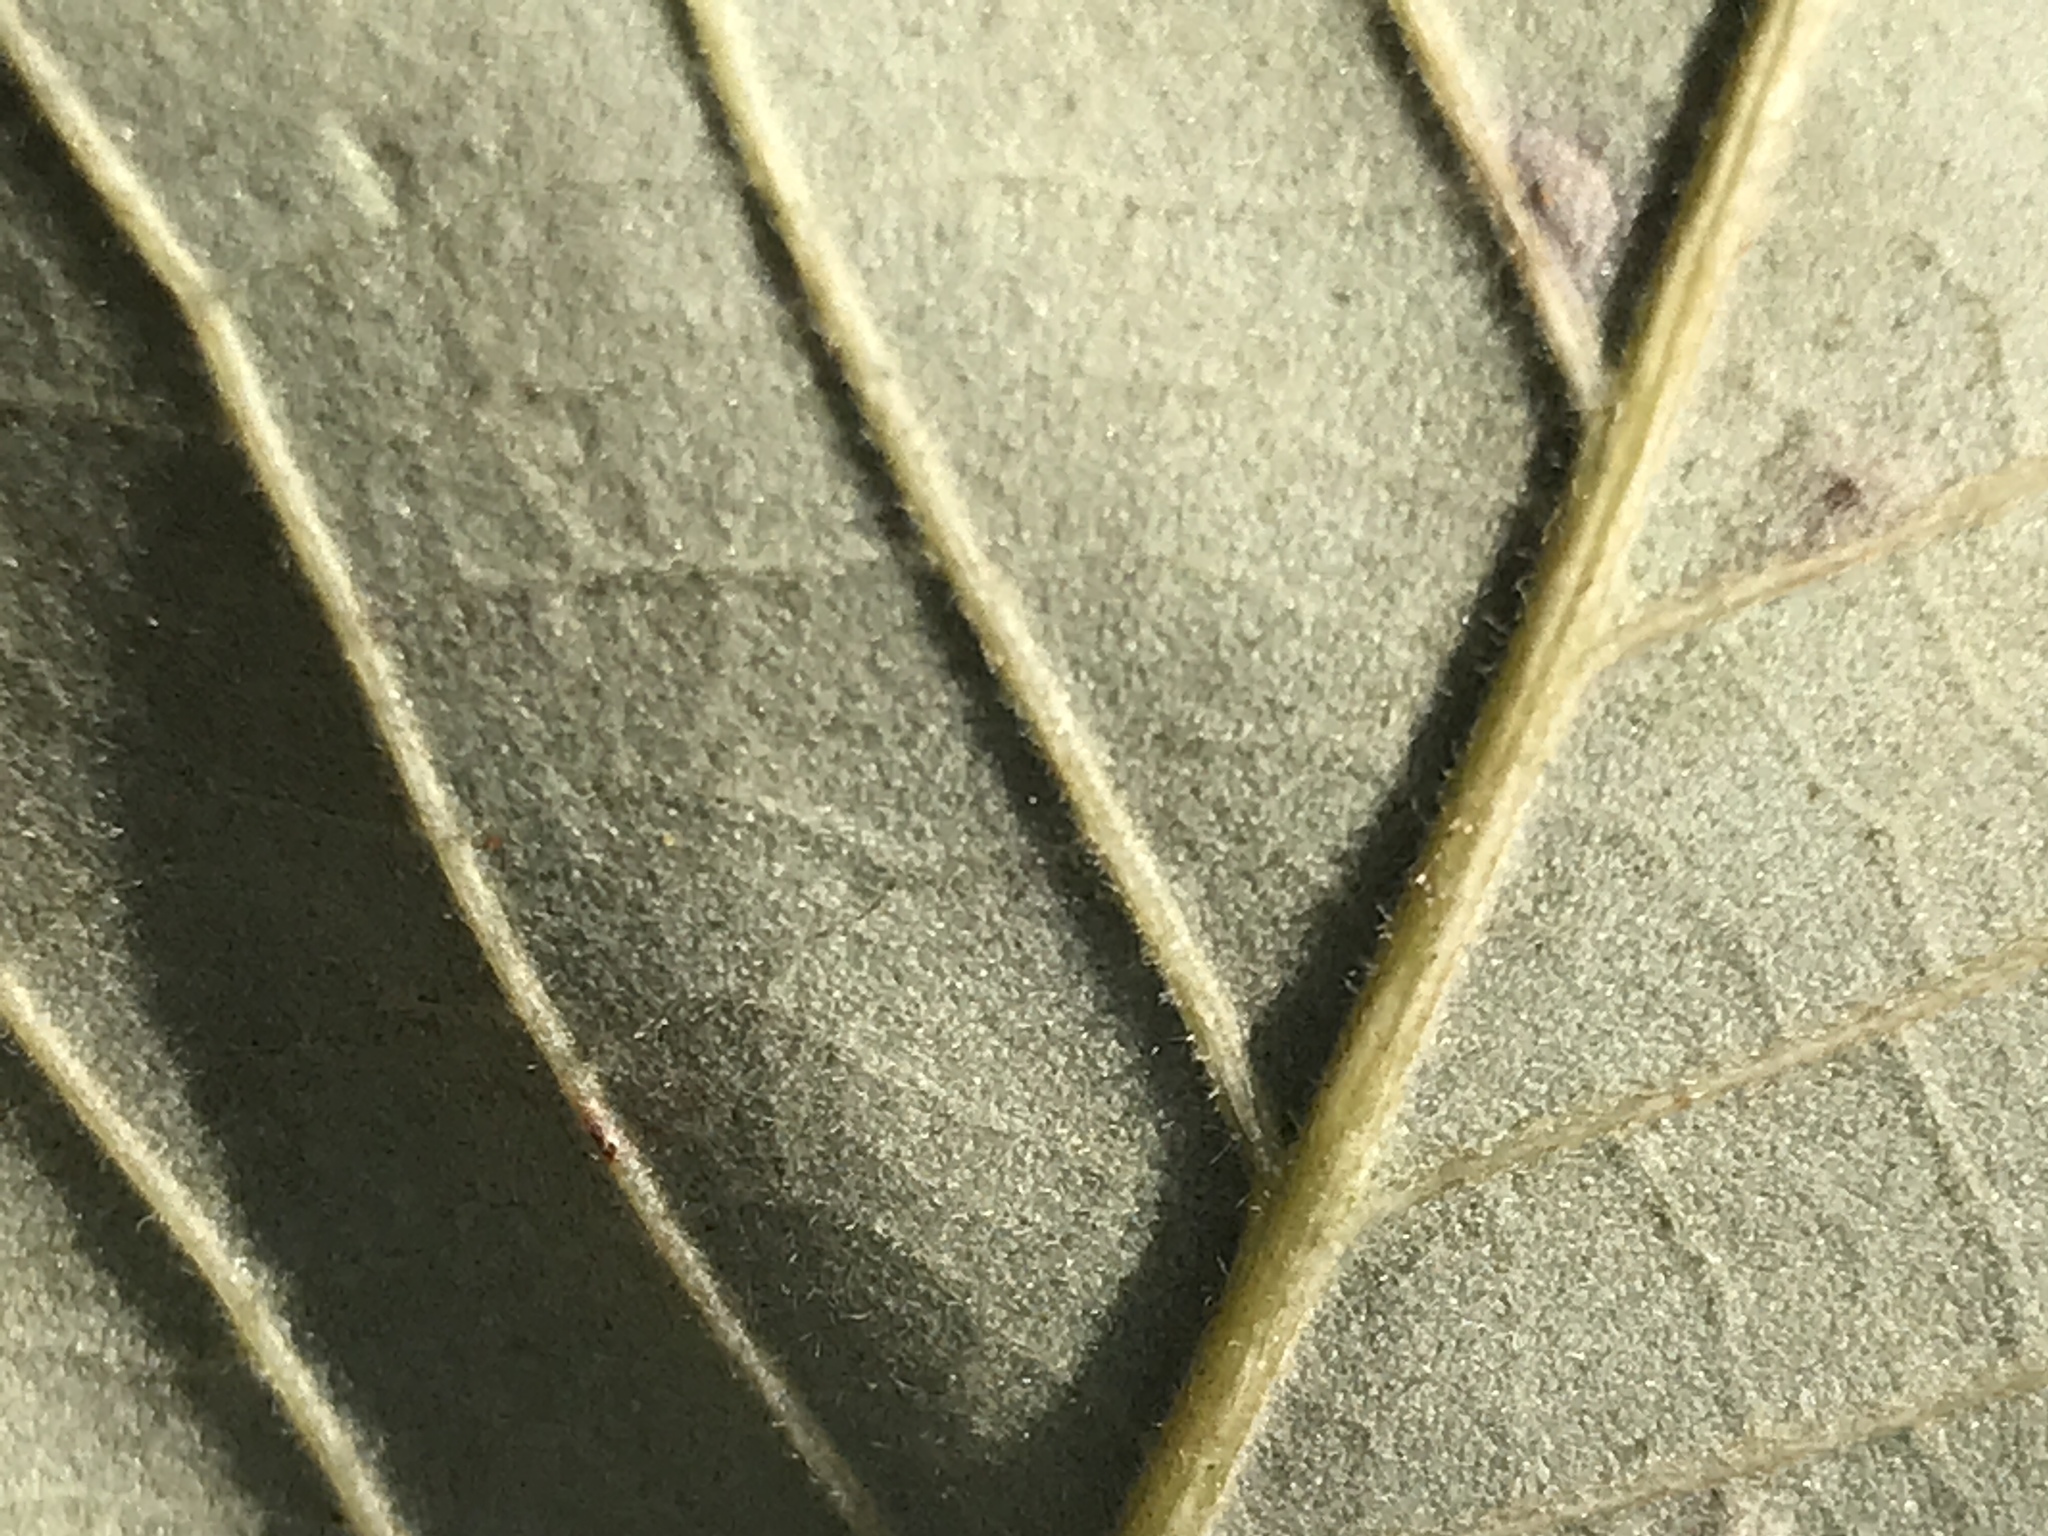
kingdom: Plantae
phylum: Tracheophyta
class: Magnoliopsida
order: Fagales
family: Fagaceae
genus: Castanea
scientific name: Castanea pumila
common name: Chinkapin
